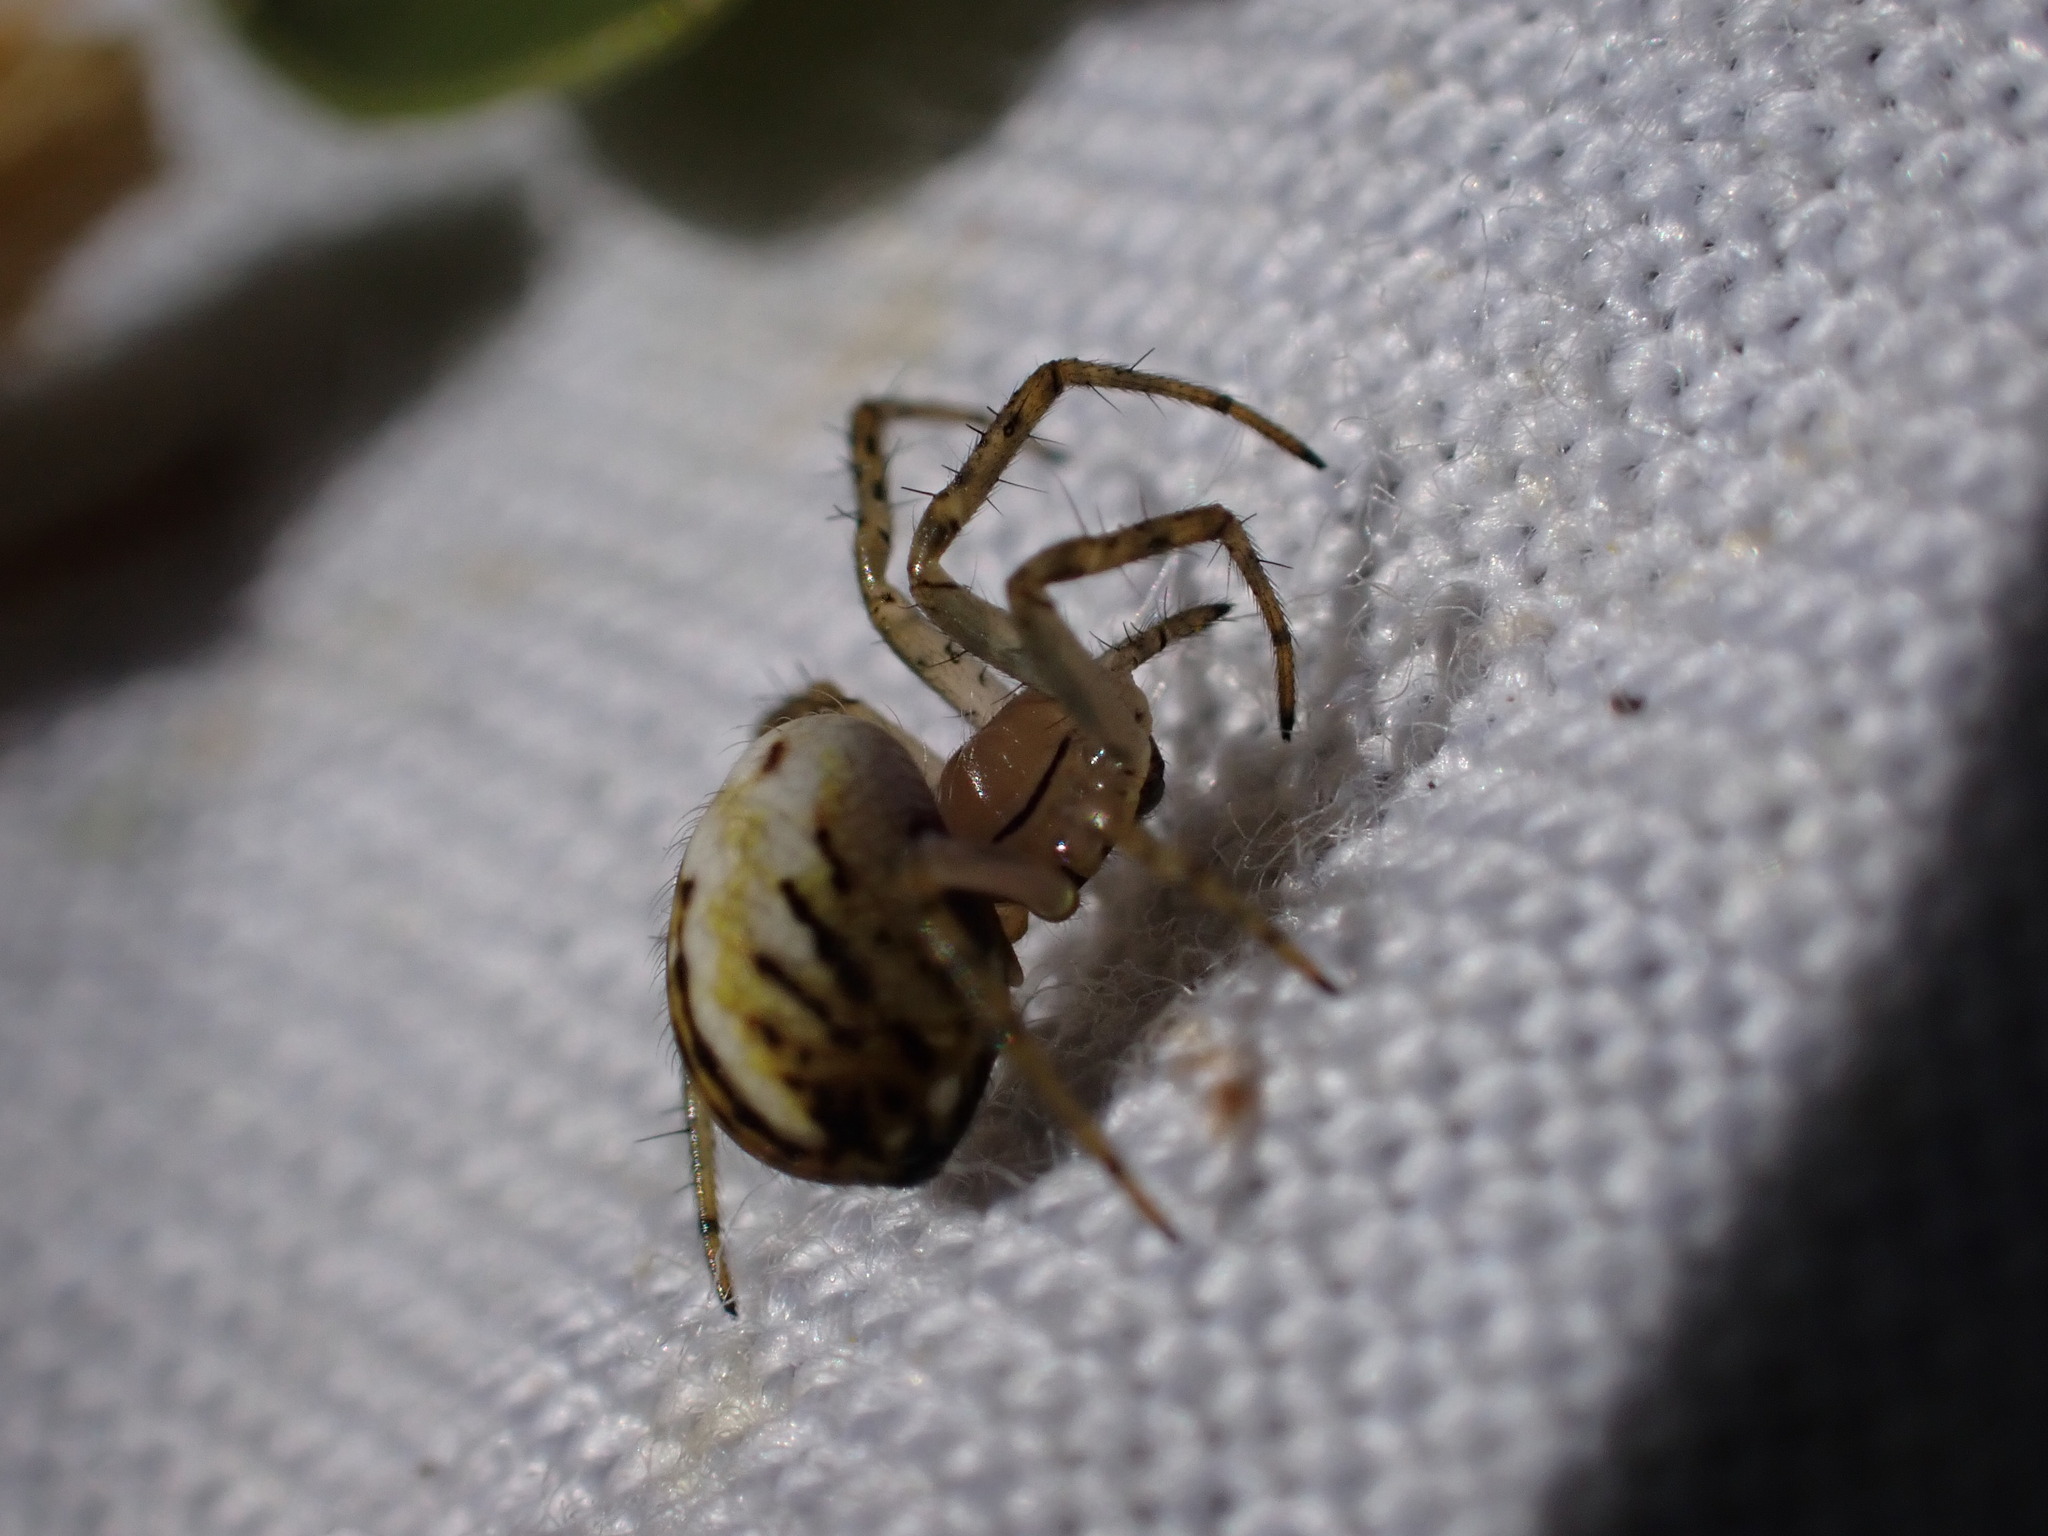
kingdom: Animalia
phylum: Arthropoda
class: Arachnida
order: Araneae
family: Araneidae
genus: Mangora
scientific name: Mangora acalypha
